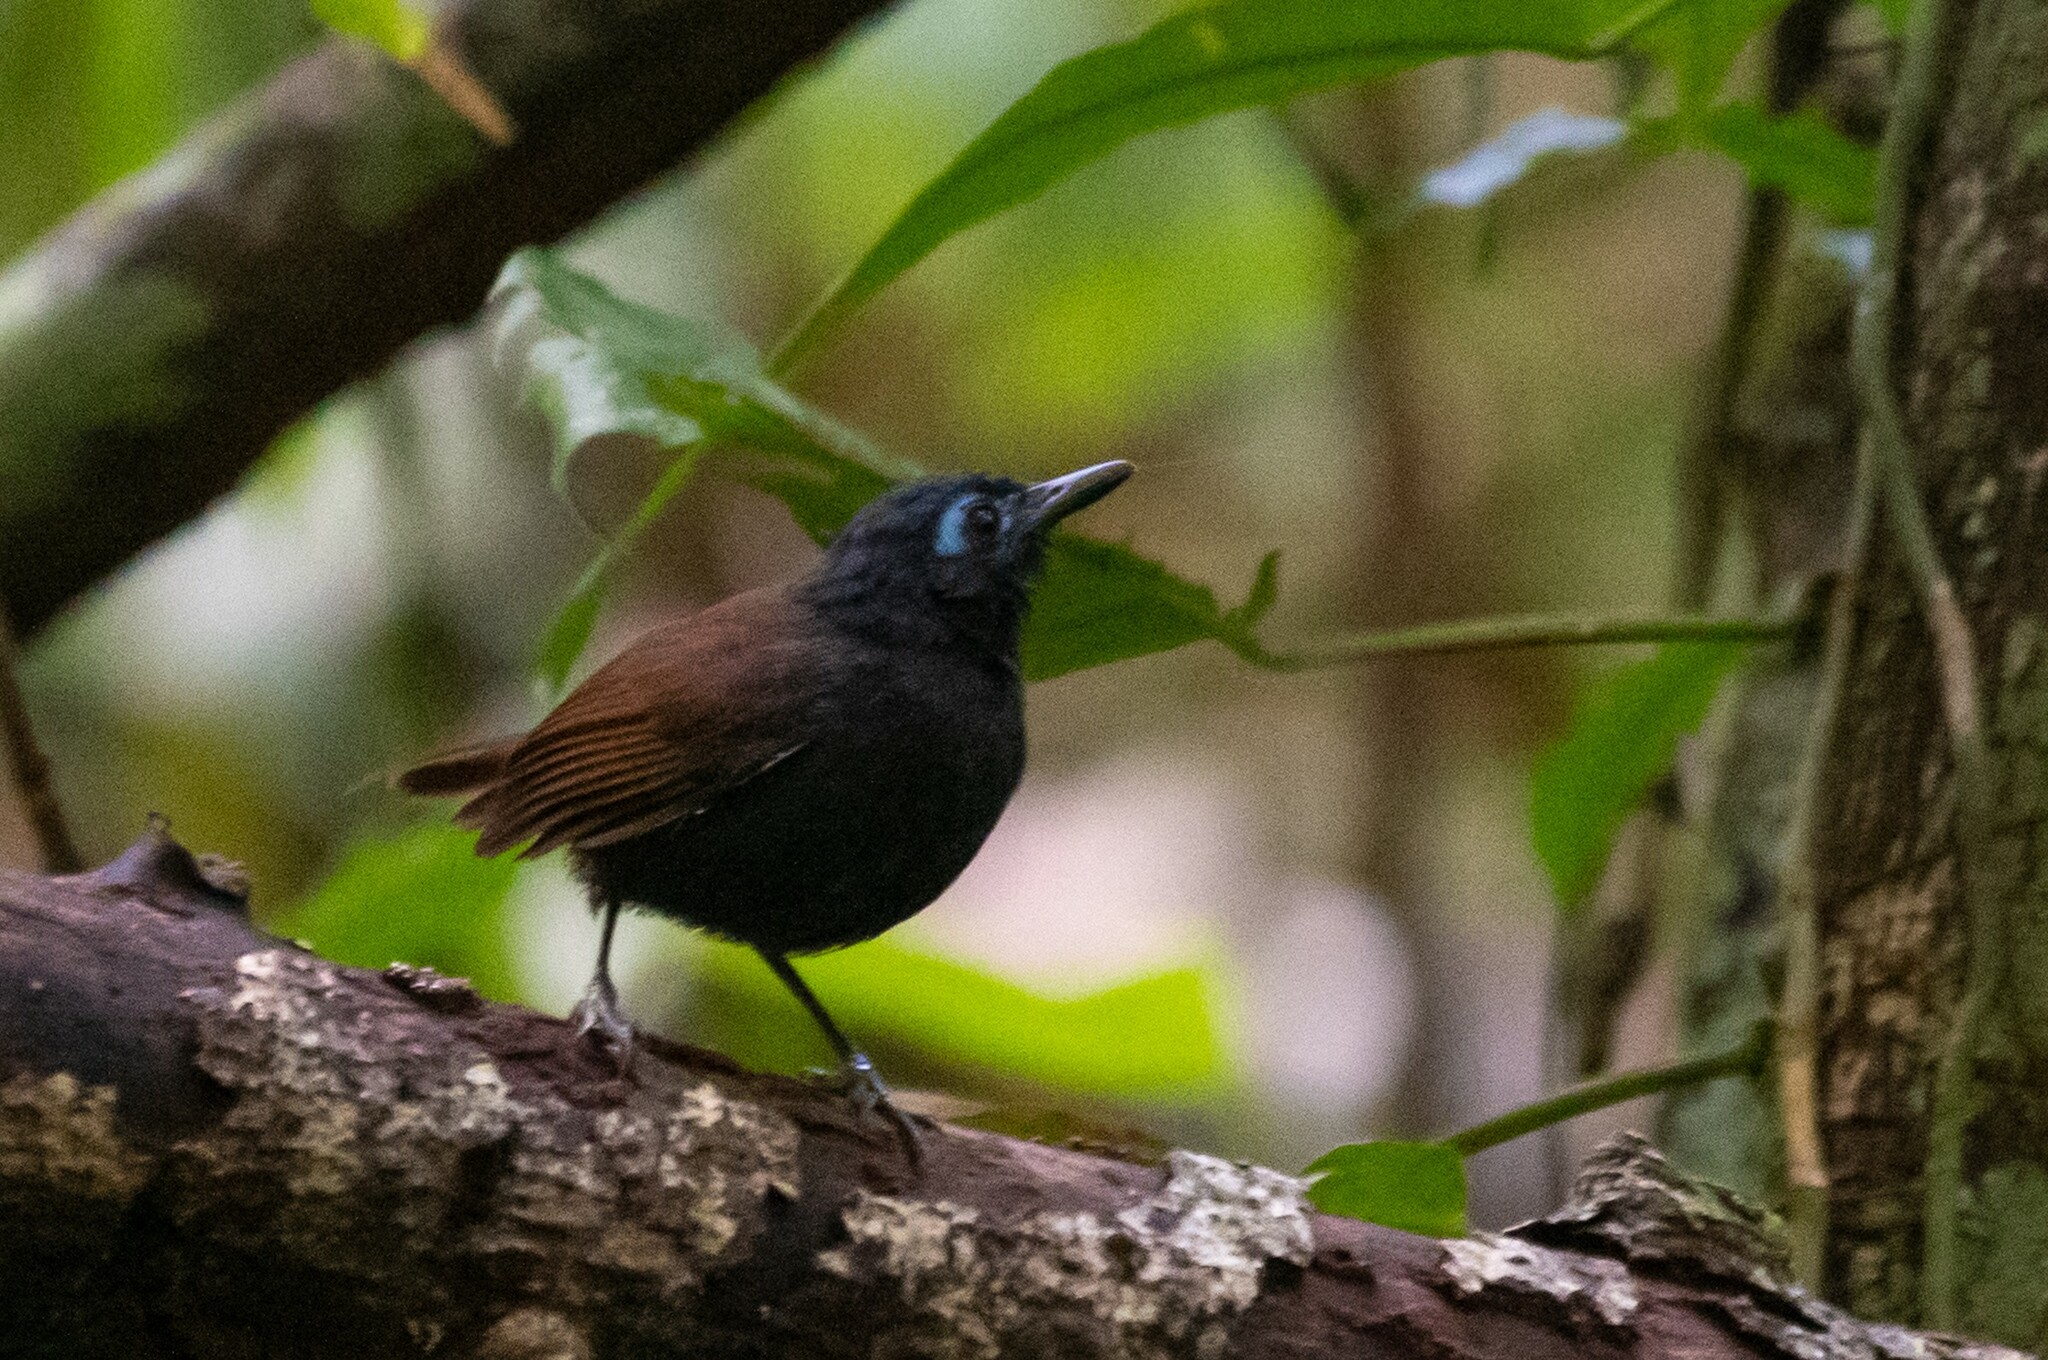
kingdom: Animalia
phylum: Chordata
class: Aves
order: Passeriformes
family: Thamnophilidae
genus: Myrmeciza
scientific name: Myrmeciza exsul
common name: Chestnut-backed antbird
